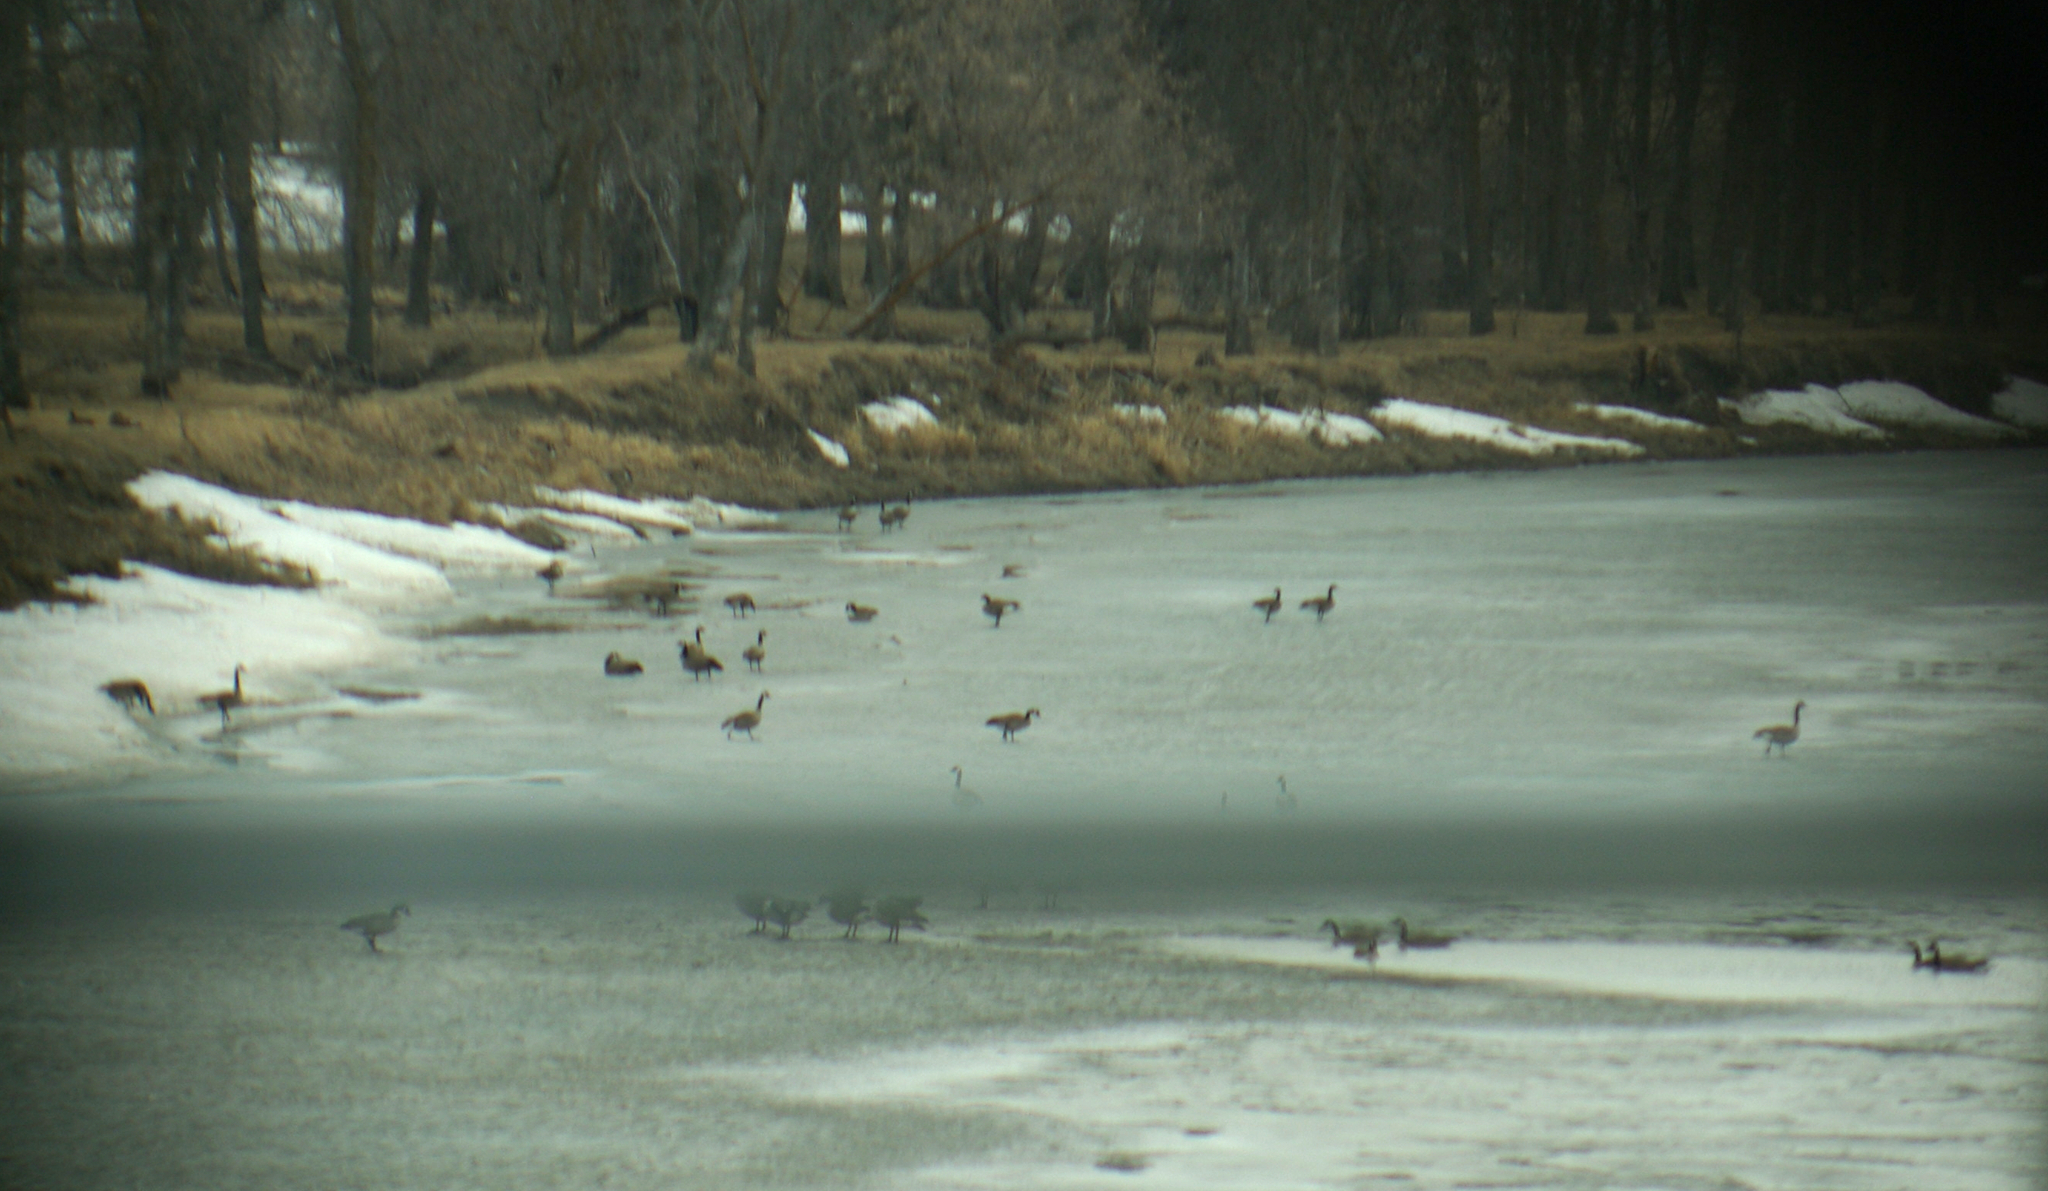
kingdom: Animalia
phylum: Chordata
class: Aves
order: Anseriformes
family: Anatidae
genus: Branta
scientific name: Branta canadensis
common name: Canada goose
